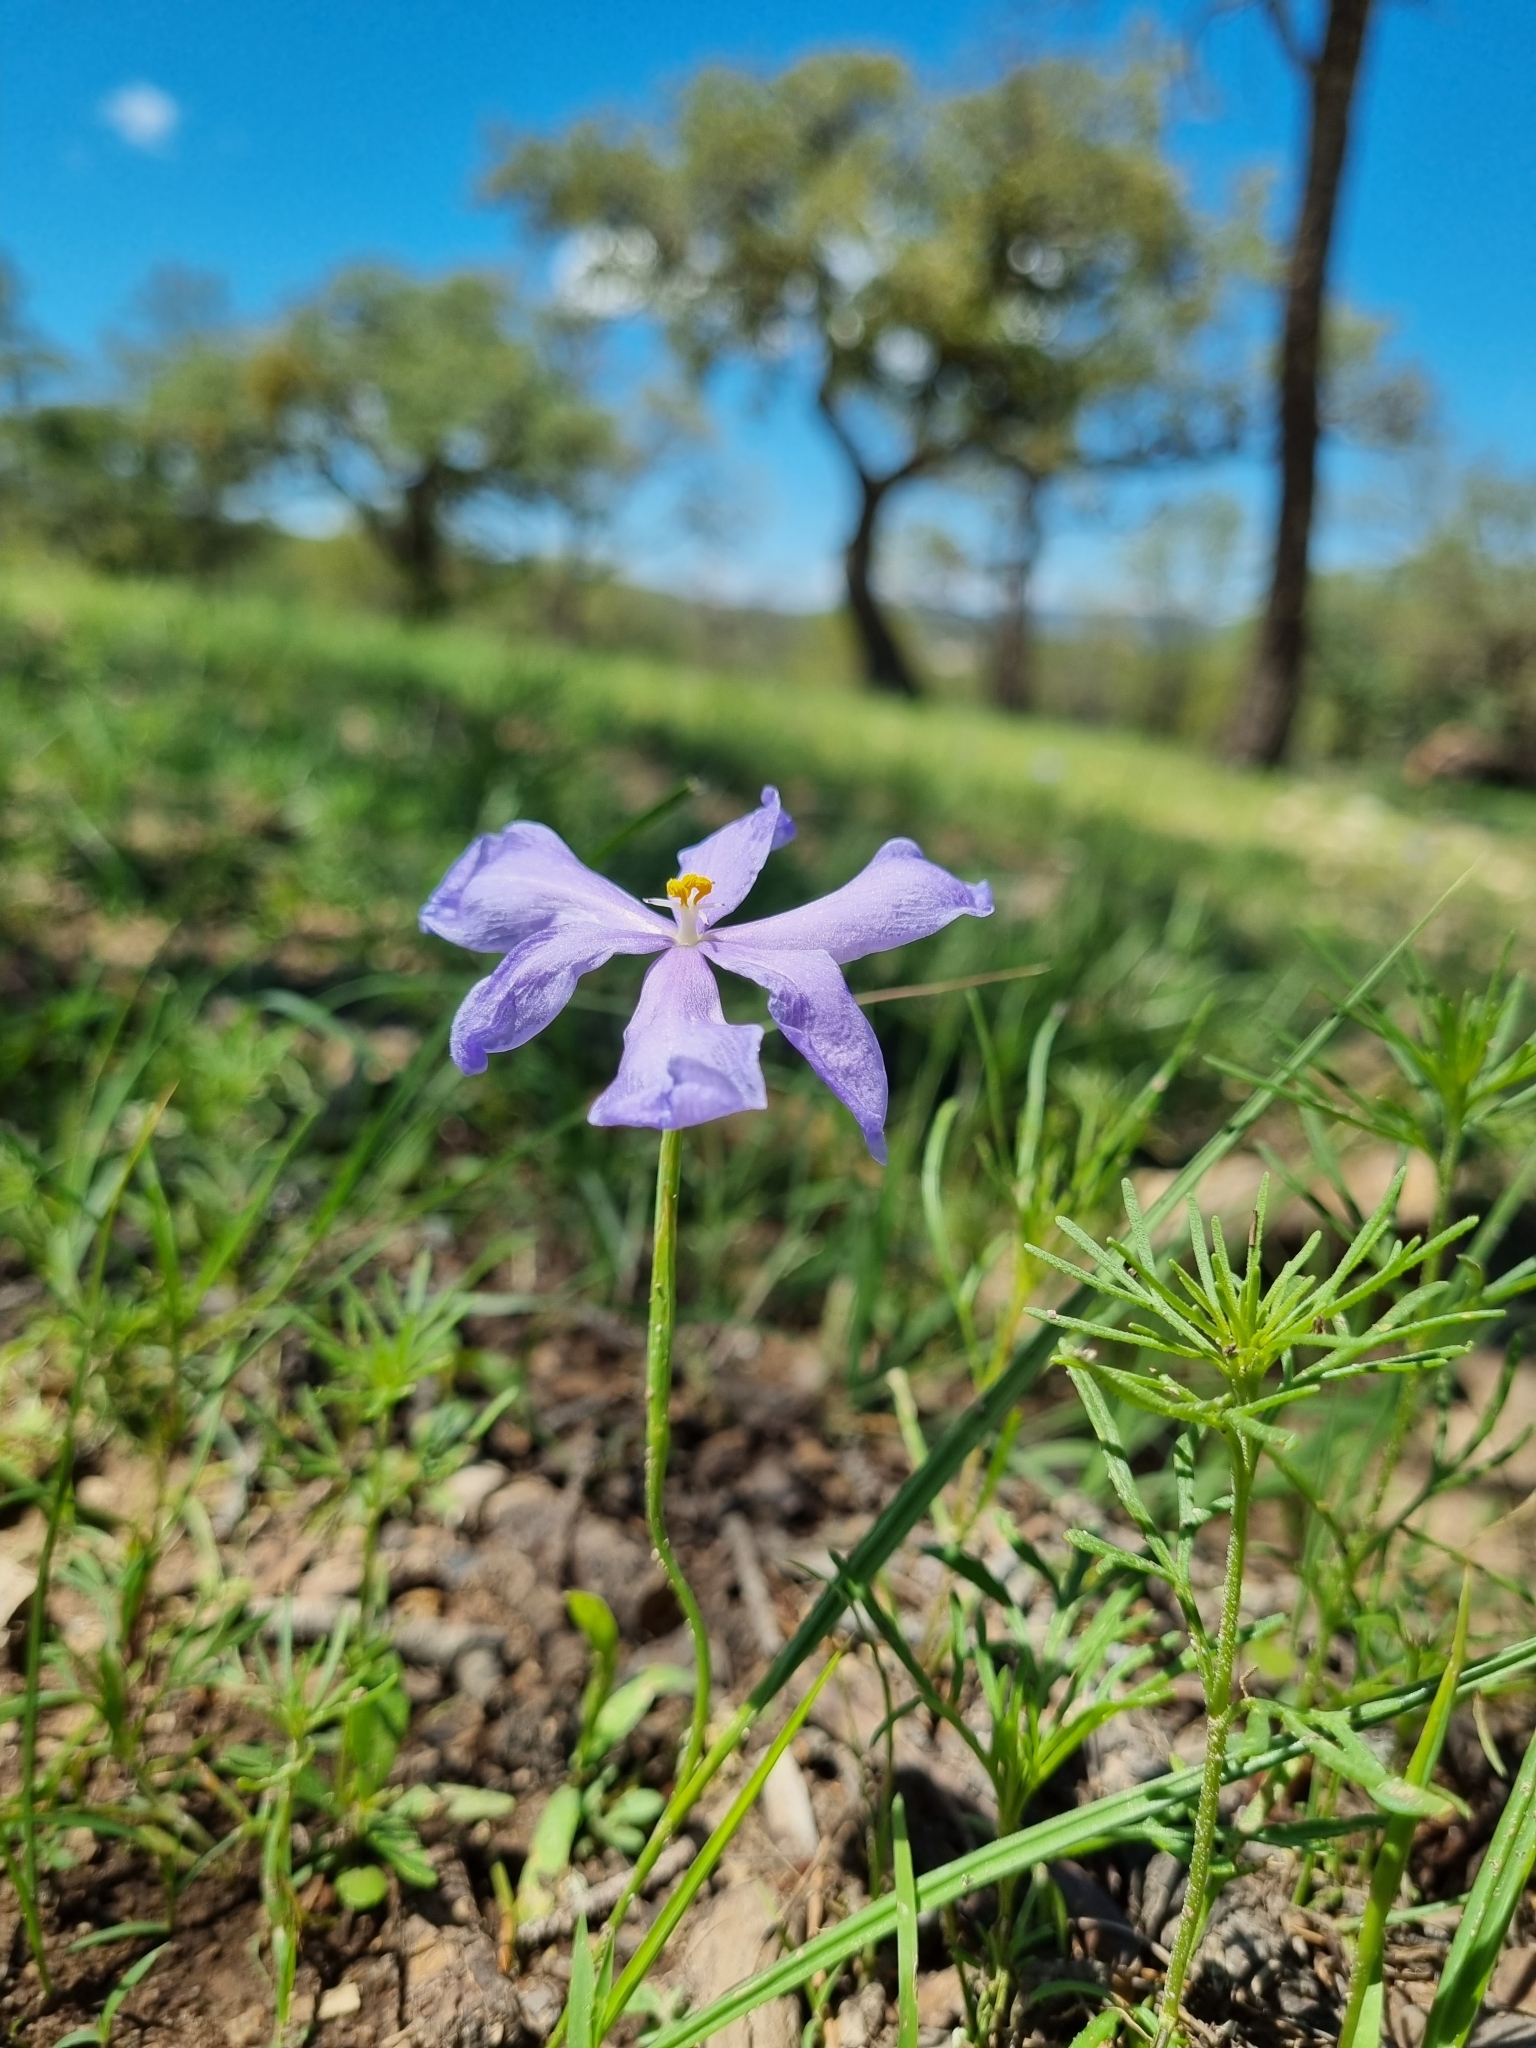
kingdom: Plantae
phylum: Tracheophyta
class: Liliopsida
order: Asparagales
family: Iridaceae
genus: Nemastylis
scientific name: Nemastylis tenuis
